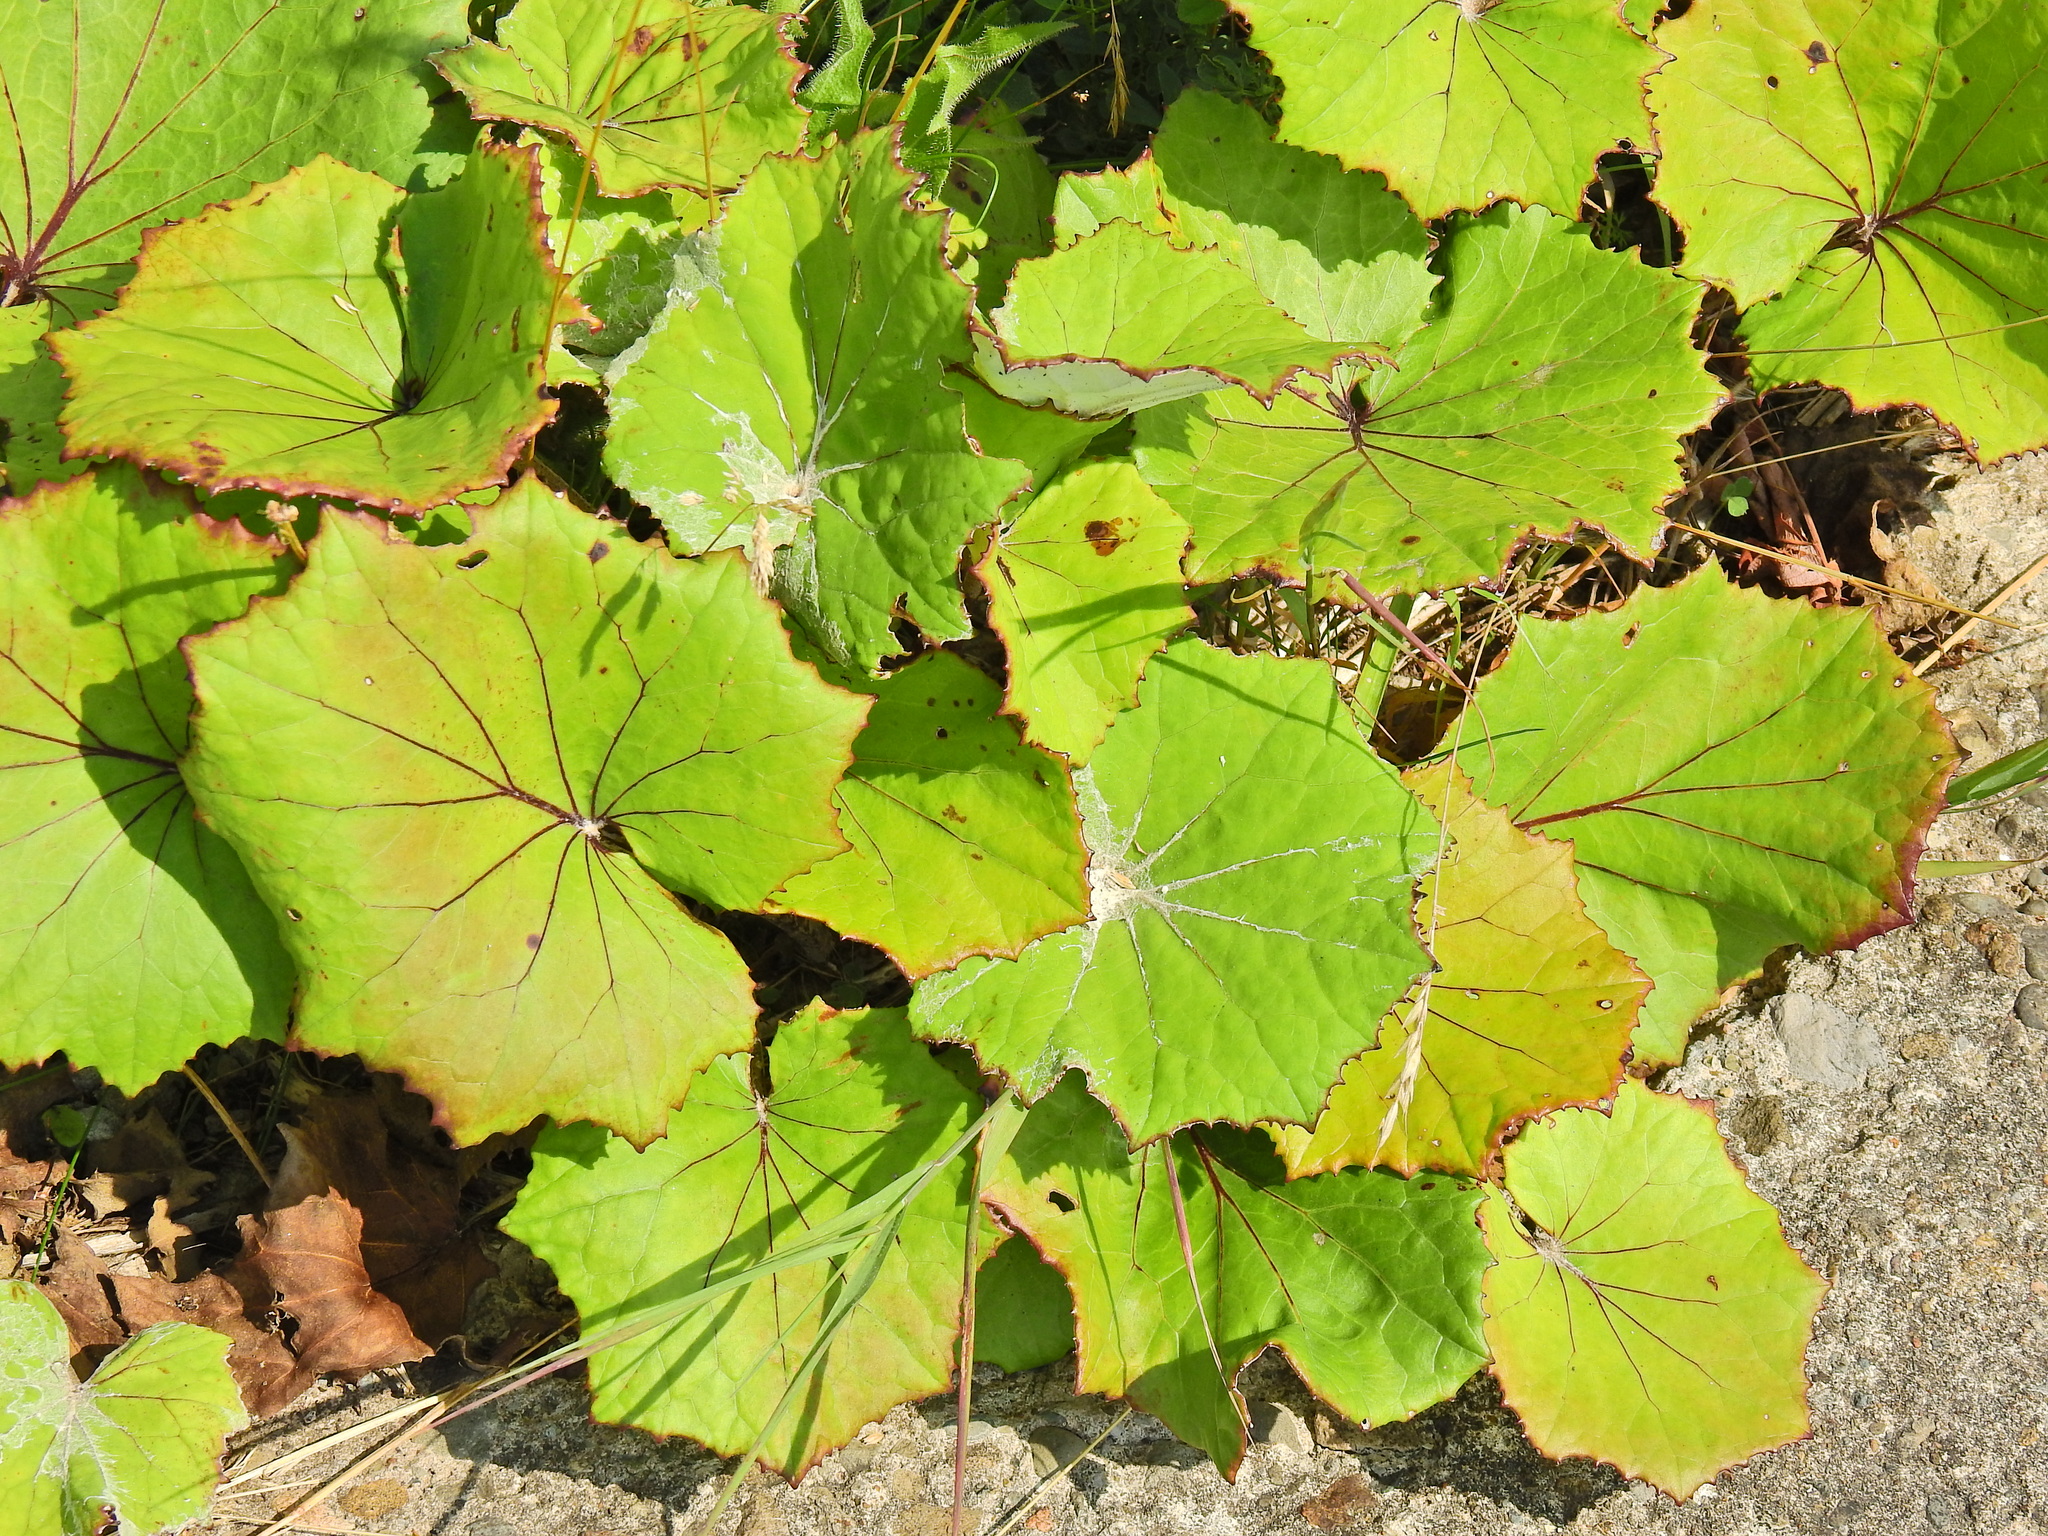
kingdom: Plantae
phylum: Tracheophyta
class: Magnoliopsida
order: Asterales
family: Asteraceae
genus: Tussilago
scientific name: Tussilago farfara
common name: Coltsfoot
